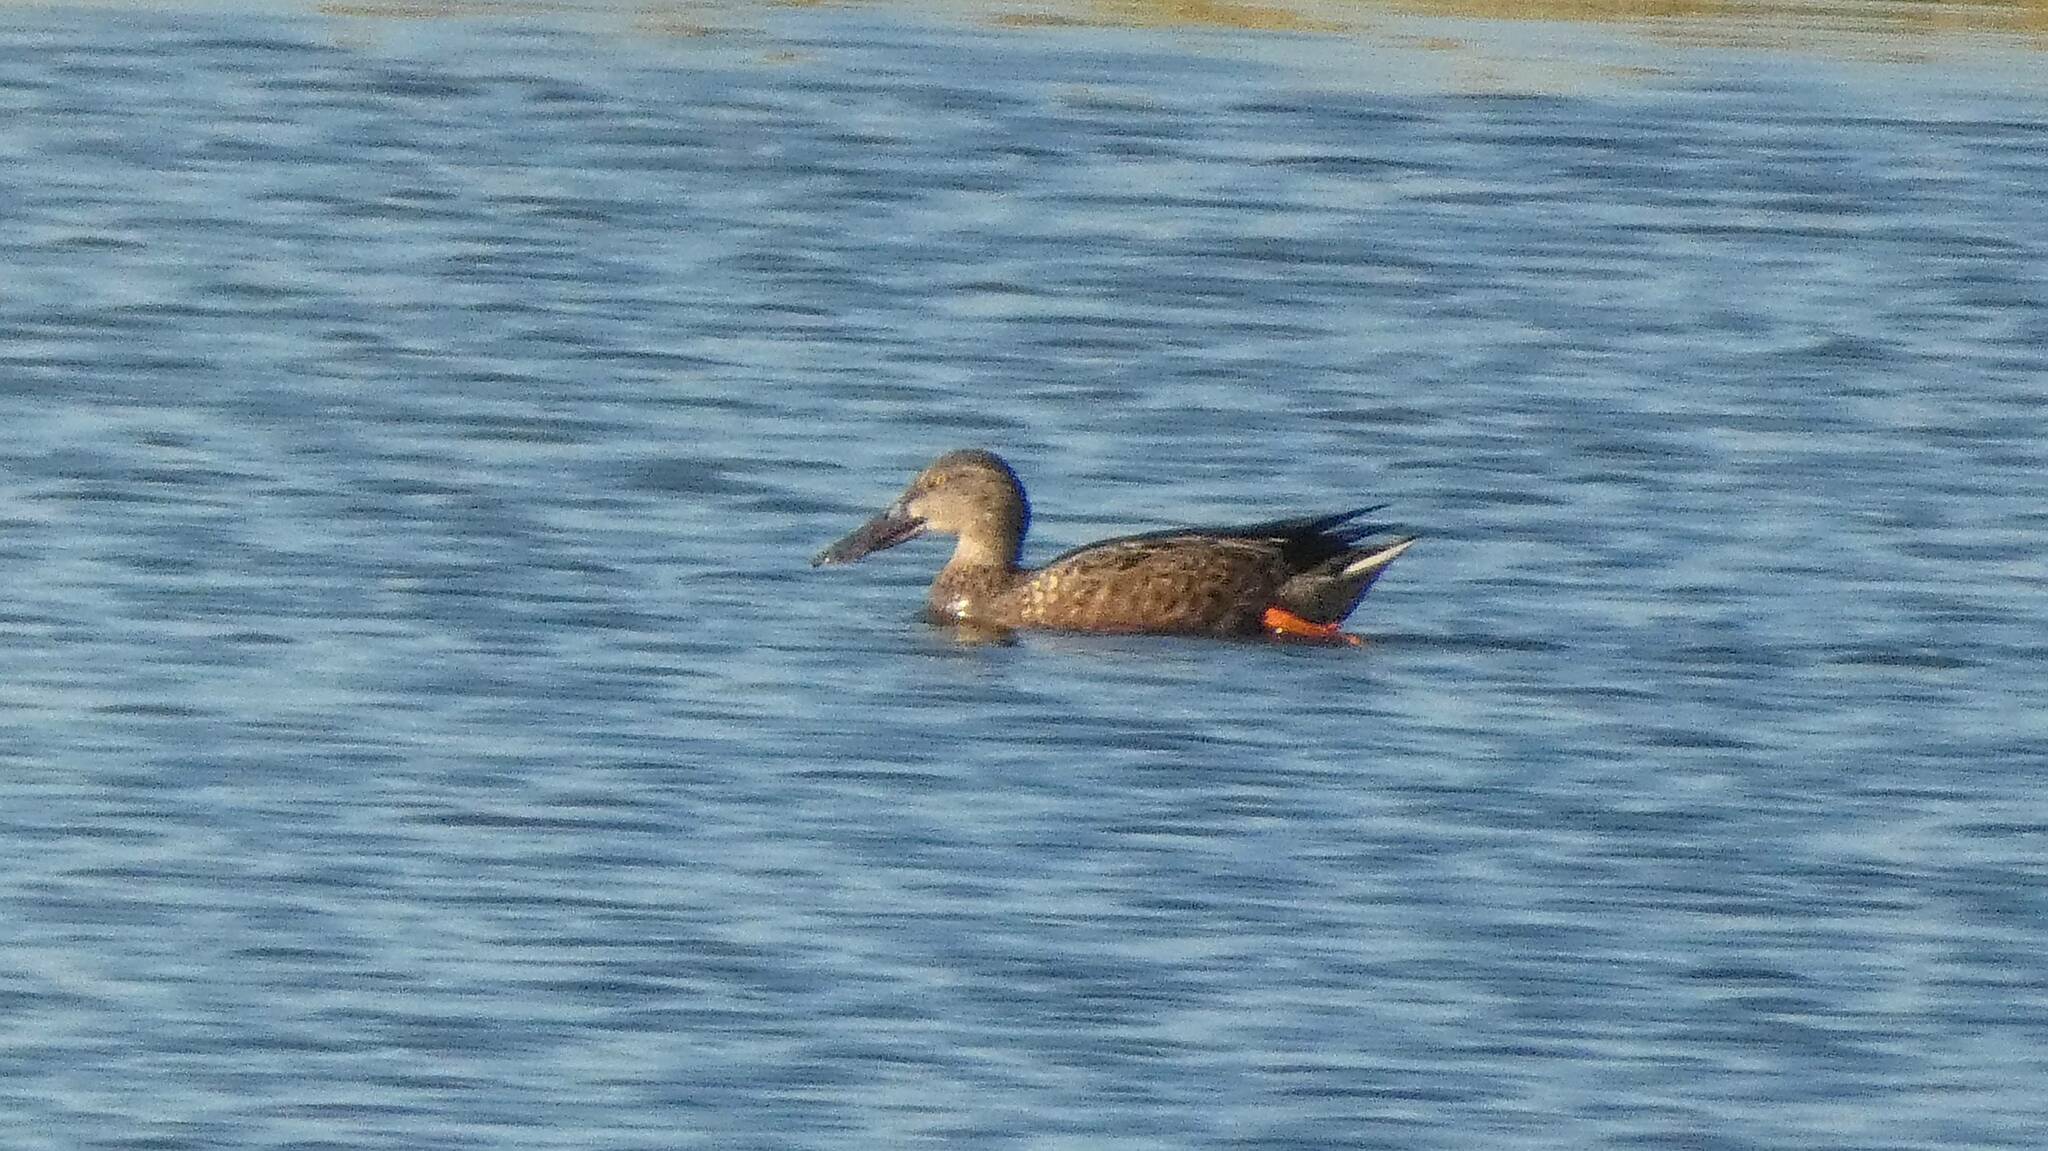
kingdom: Animalia
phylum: Chordata
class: Aves
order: Anseriformes
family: Anatidae
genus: Spatula
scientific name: Spatula clypeata
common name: Northern shoveler
